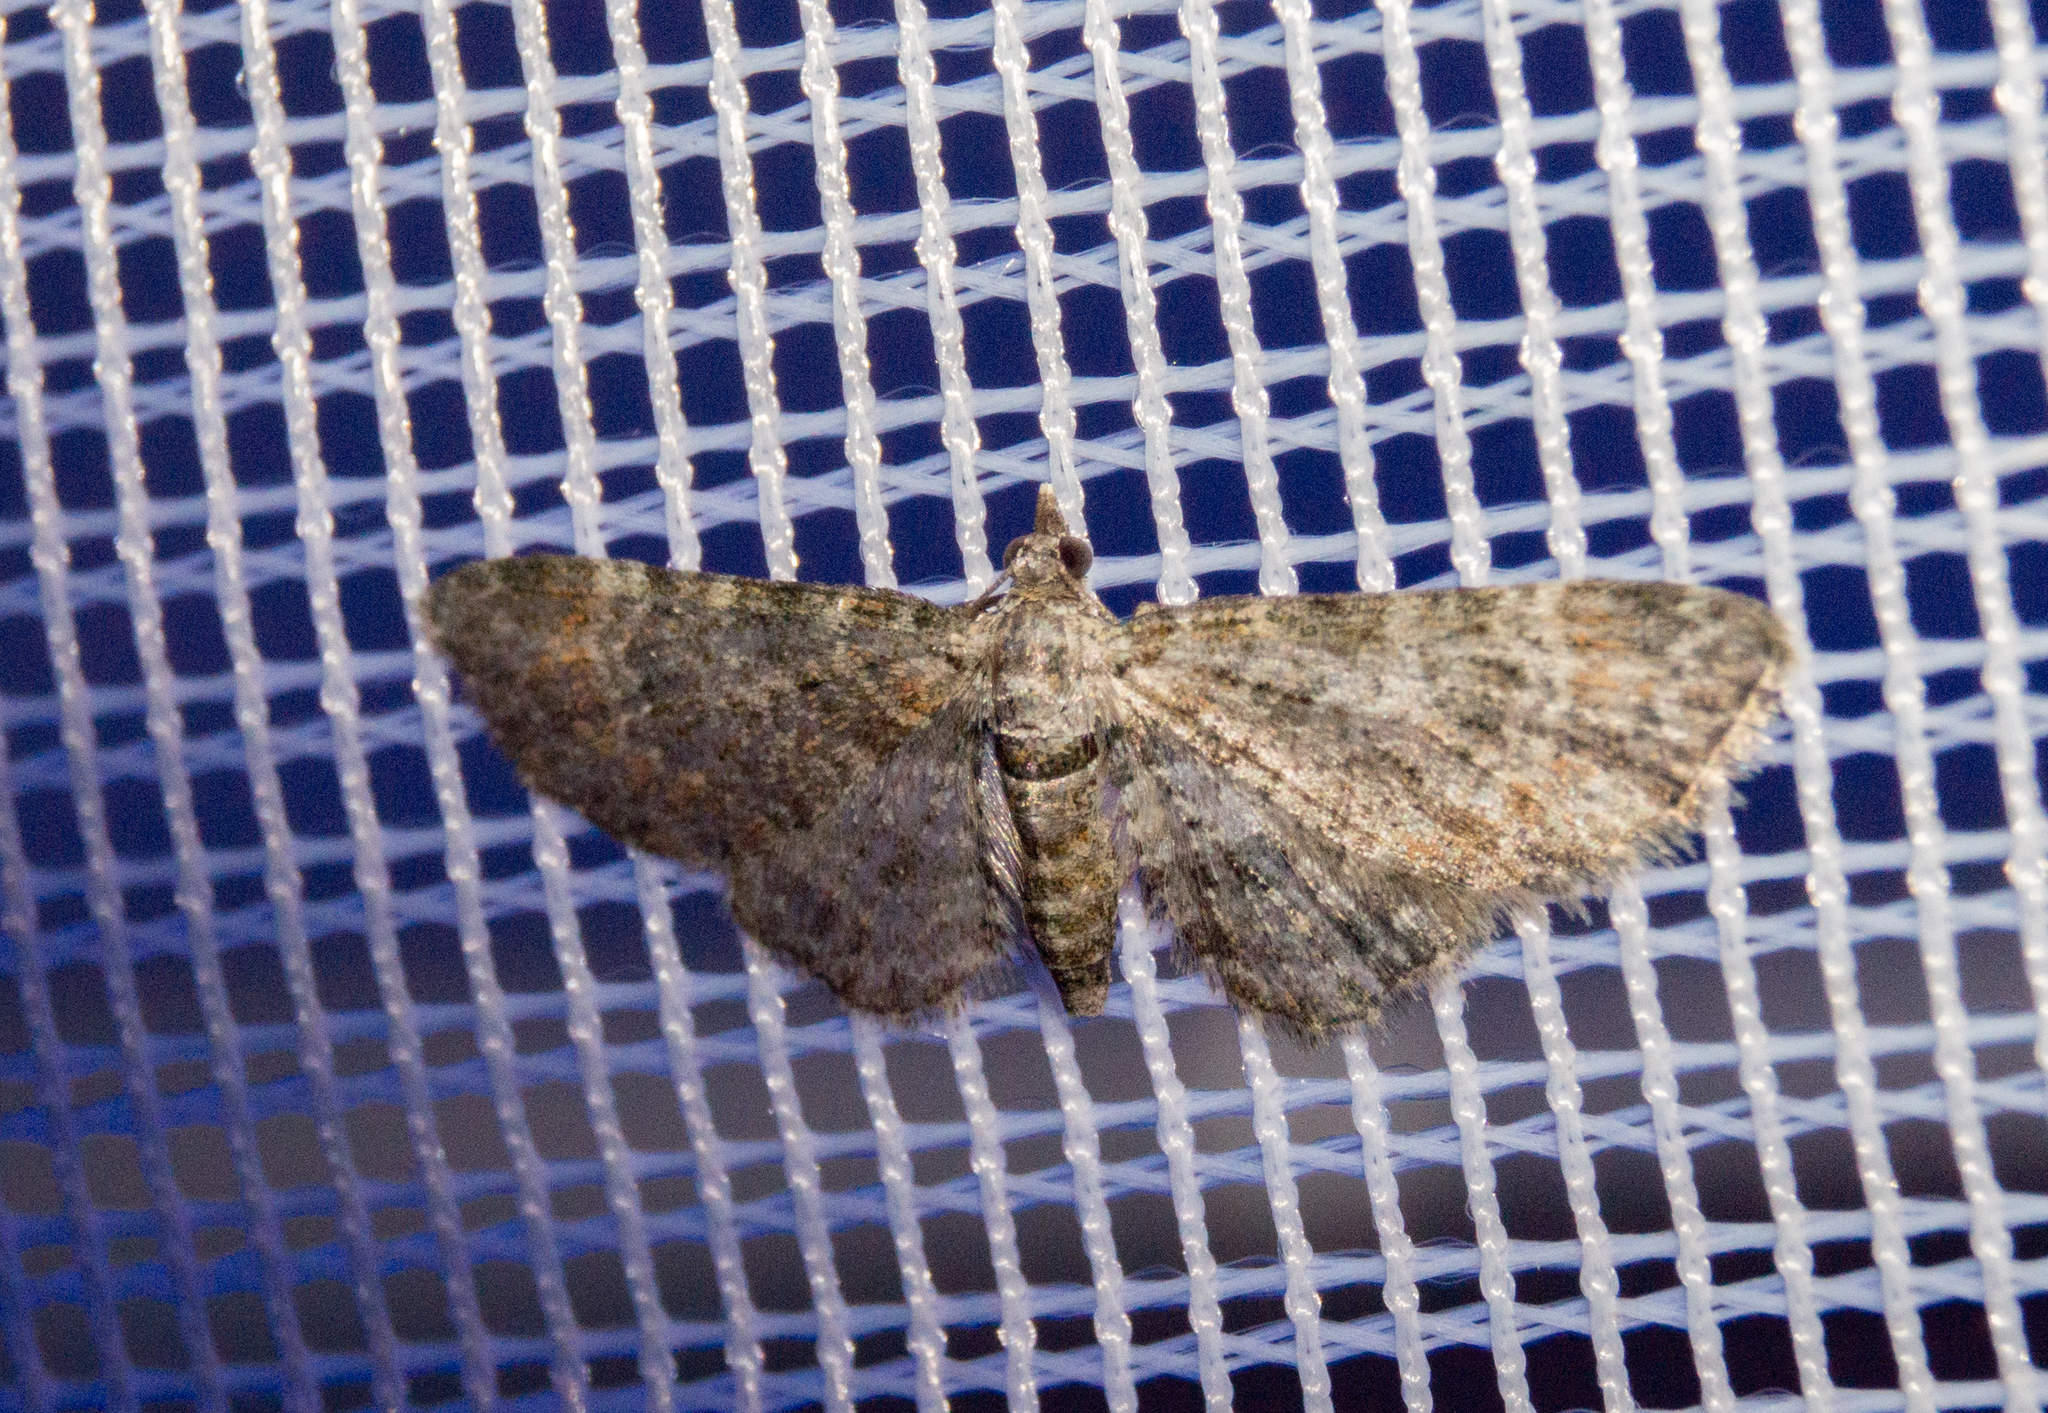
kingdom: Animalia
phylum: Arthropoda
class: Insecta
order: Lepidoptera
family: Geometridae
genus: Gymnoscelis
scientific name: Gymnoscelis rufifasciata
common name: Double-striped pug
